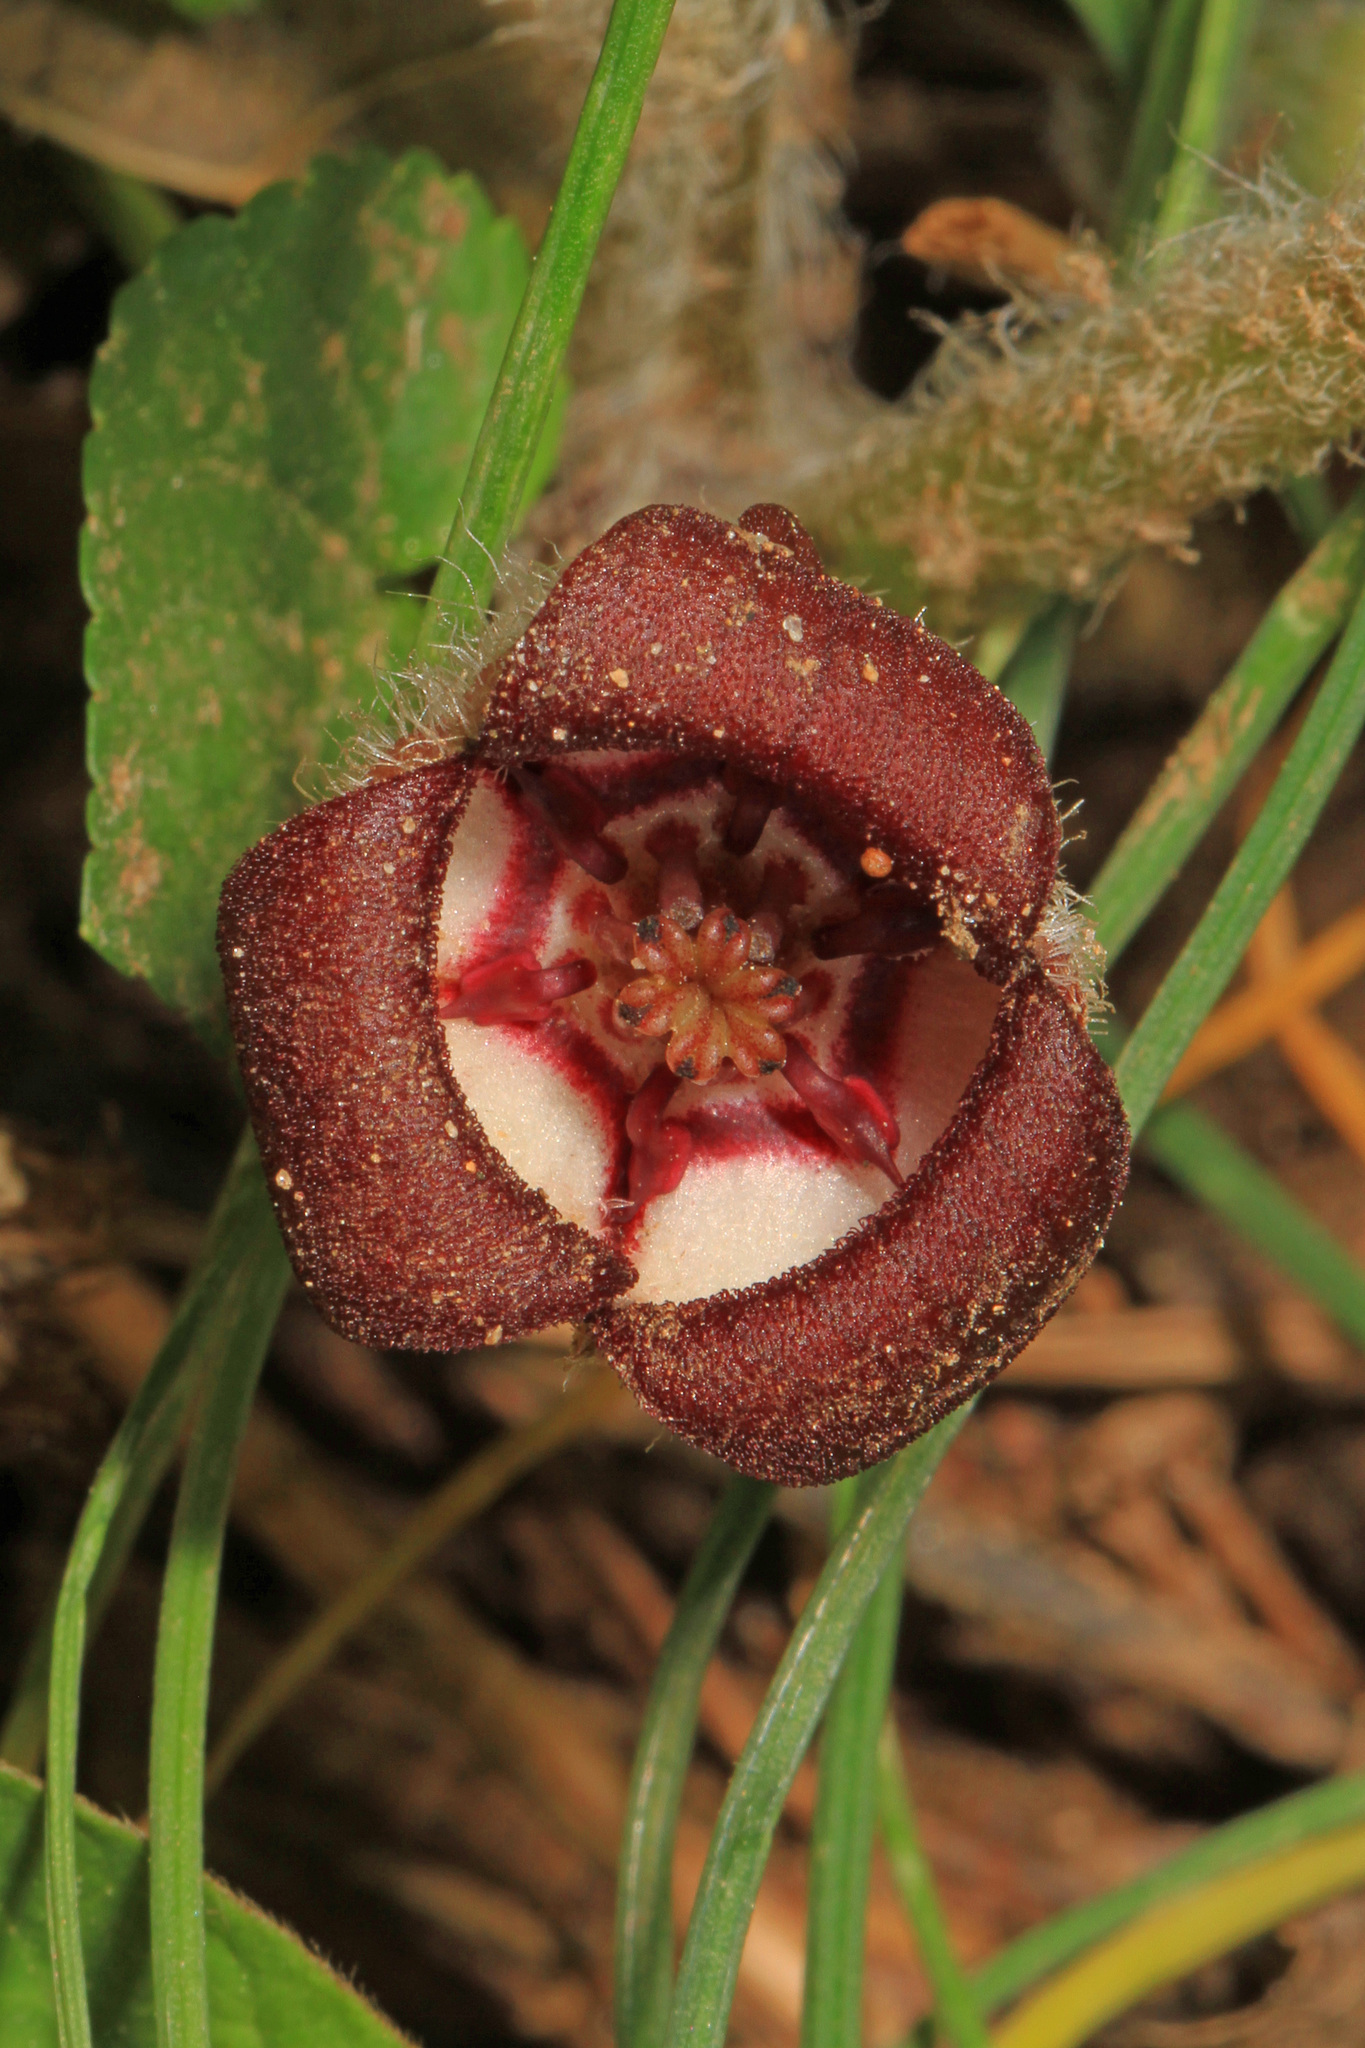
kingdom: Plantae
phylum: Tracheophyta
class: Magnoliopsida
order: Piperales
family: Aristolochiaceae
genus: Asarum
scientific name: Asarum canadense
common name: Wild ginger
